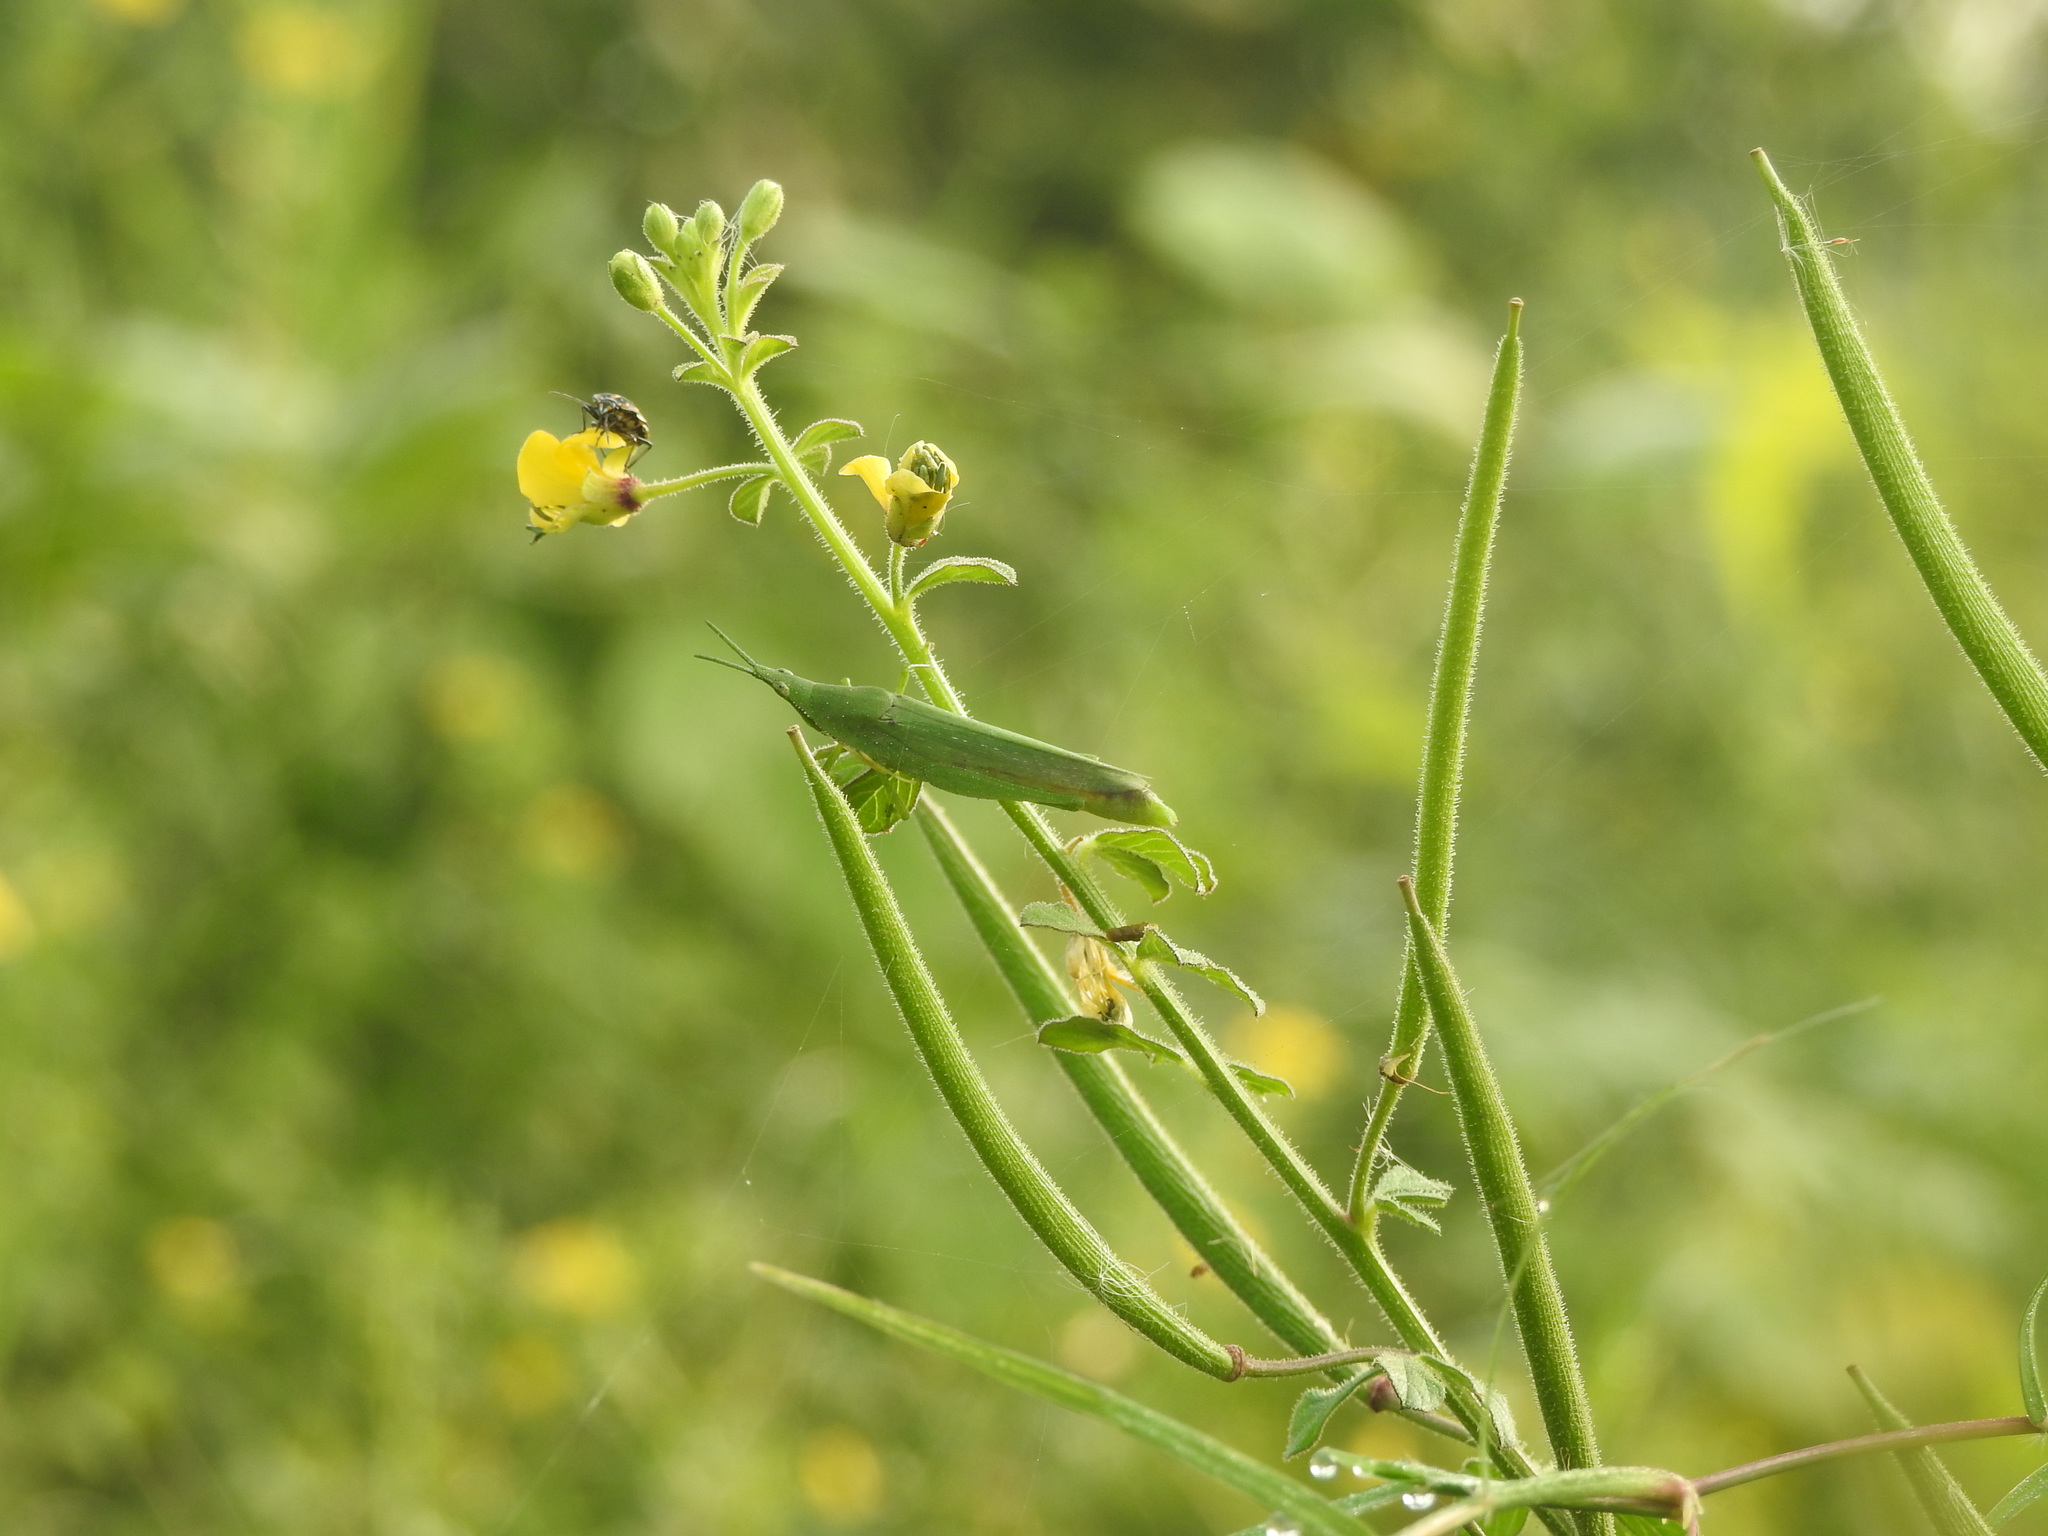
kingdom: Plantae
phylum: Tracheophyta
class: Magnoliopsida
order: Brassicales
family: Cleomaceae
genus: Arivela
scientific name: Arivela viscosa
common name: Asian spiderflower
